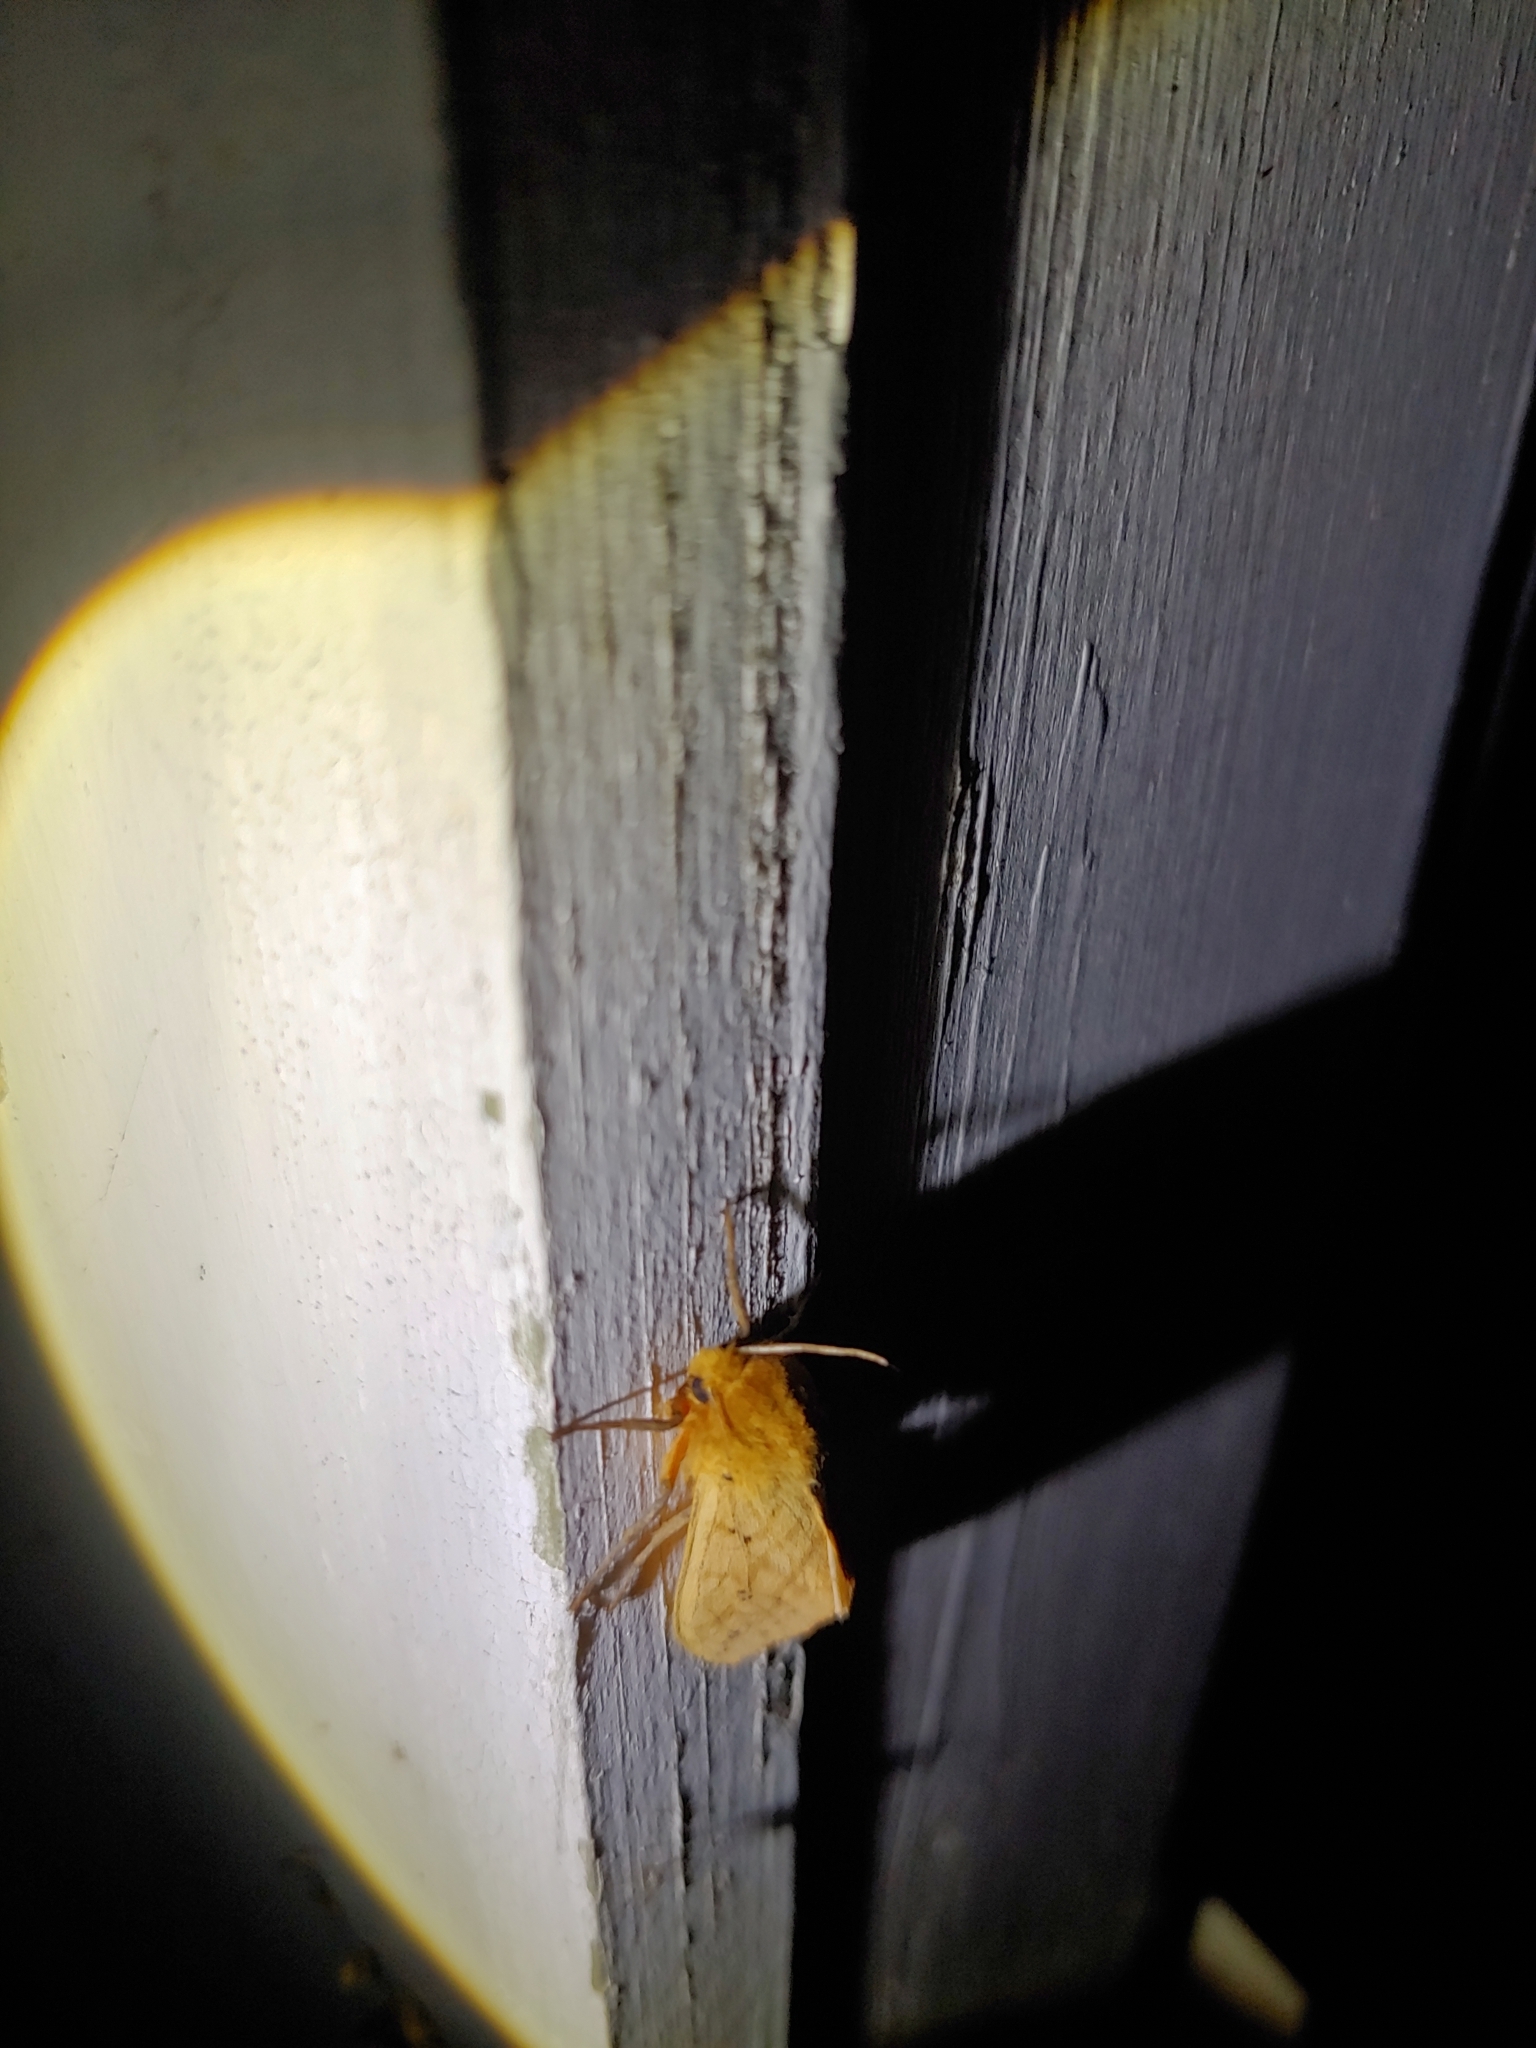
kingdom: Animalia
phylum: Arthropoda
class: Insecta
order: Lepidoptera
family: Erebidae
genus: Pyrrharctia
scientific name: Pyrrharctia isabella
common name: Isabella tiger moth
